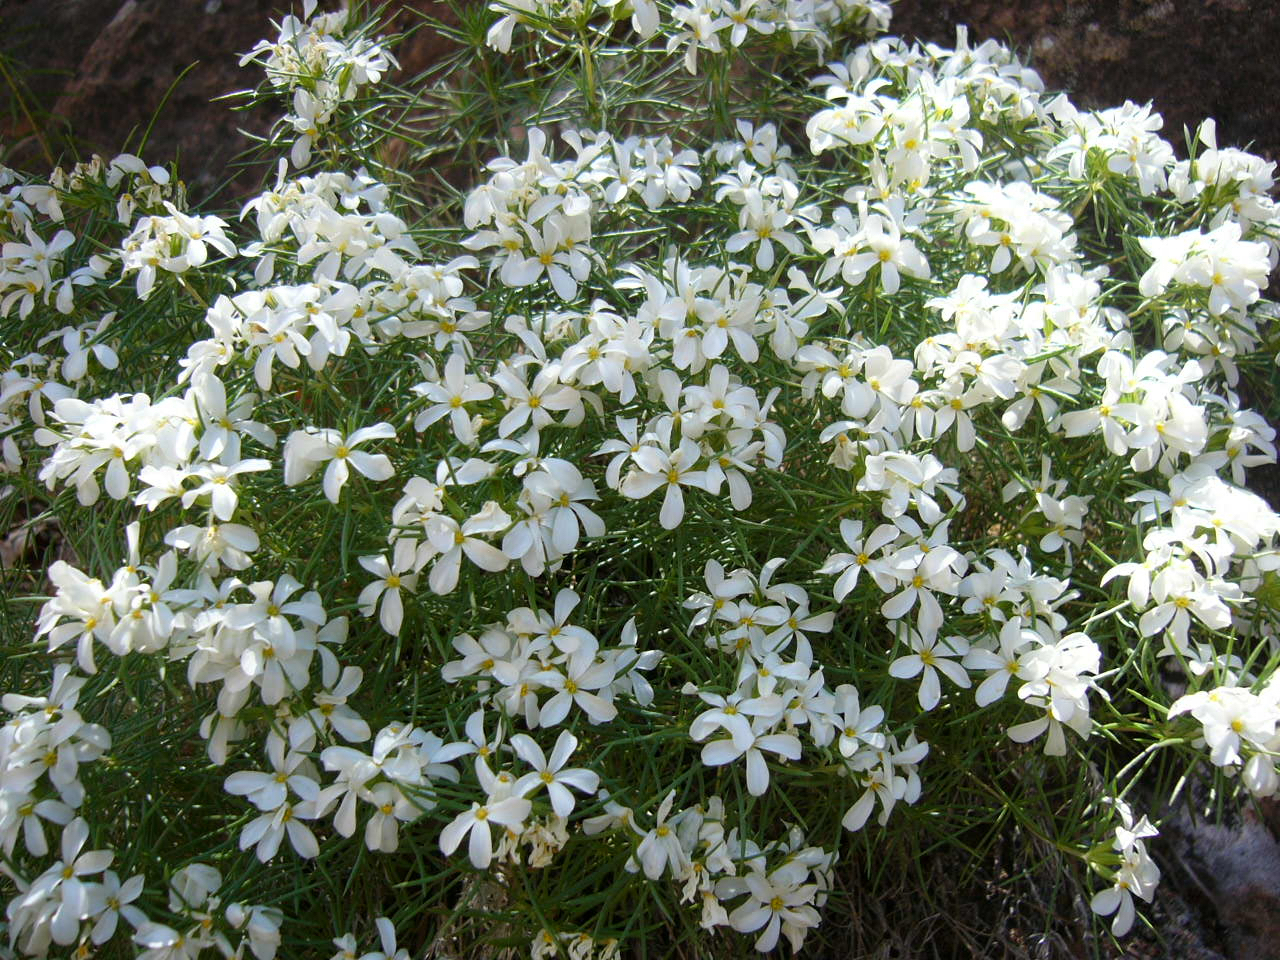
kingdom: Plantae
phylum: Tracheophyta
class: Magnoliopsida
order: Ericales
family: Polemoniaceae
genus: Leptosiphon
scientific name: Leptosiphon nuttallii
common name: Nuttall's linanthus
